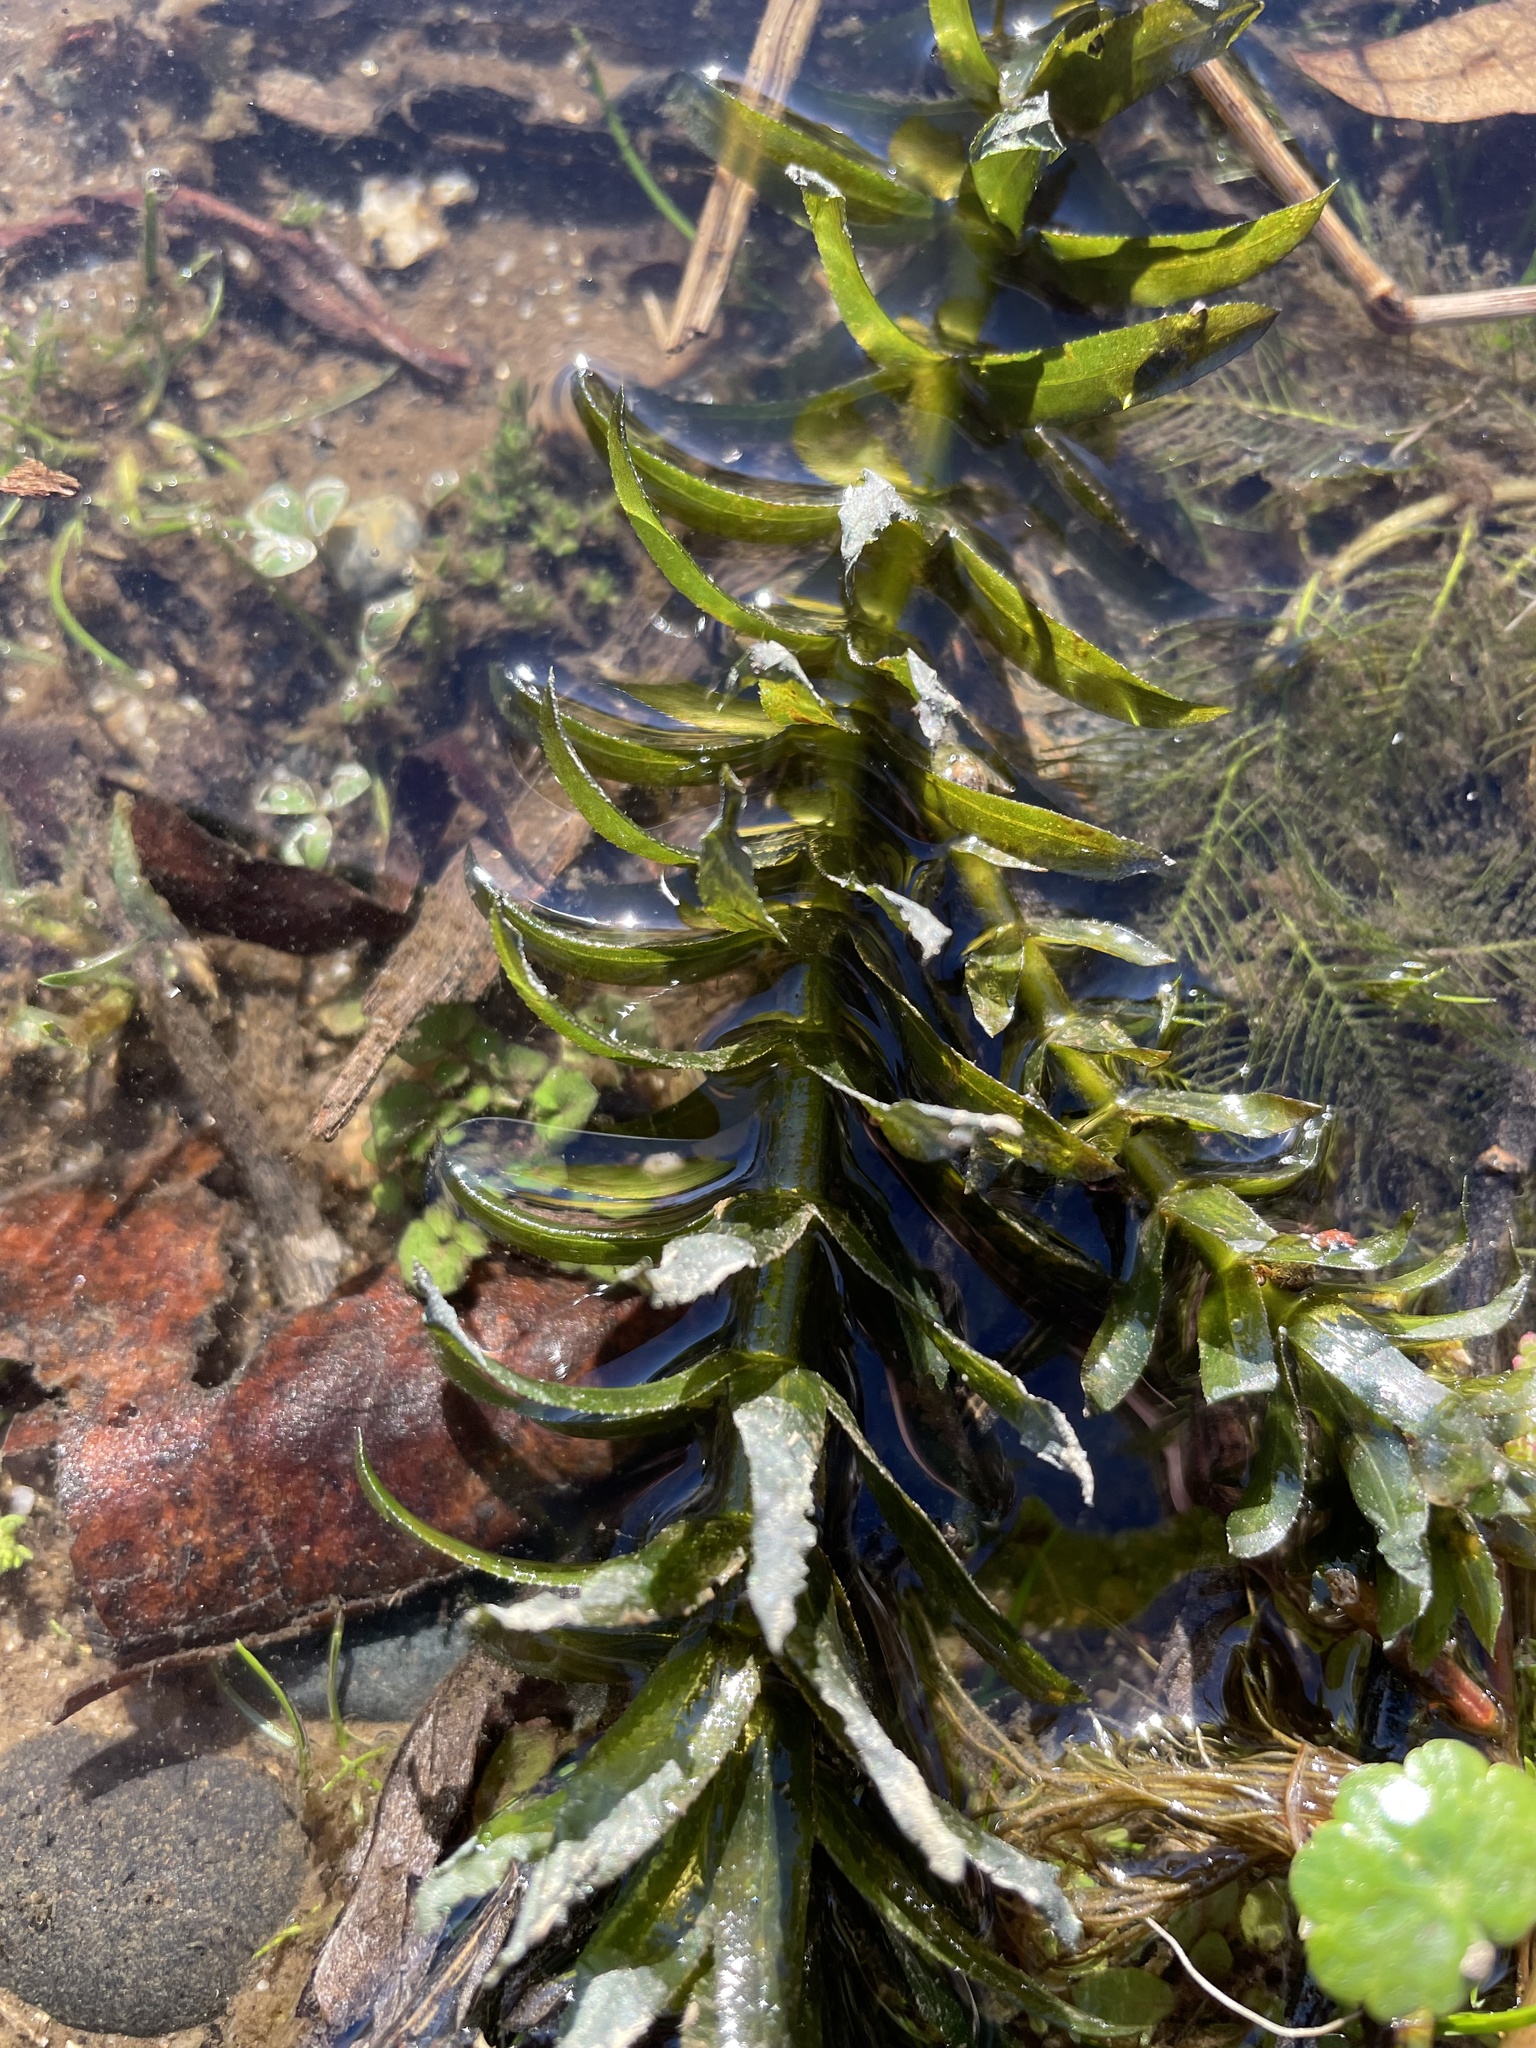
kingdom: Plantae
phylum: Tracheophyta
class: Liliopsida
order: Alismatales
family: Hydrocharitaceae
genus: Elodea
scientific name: Elodea densa
